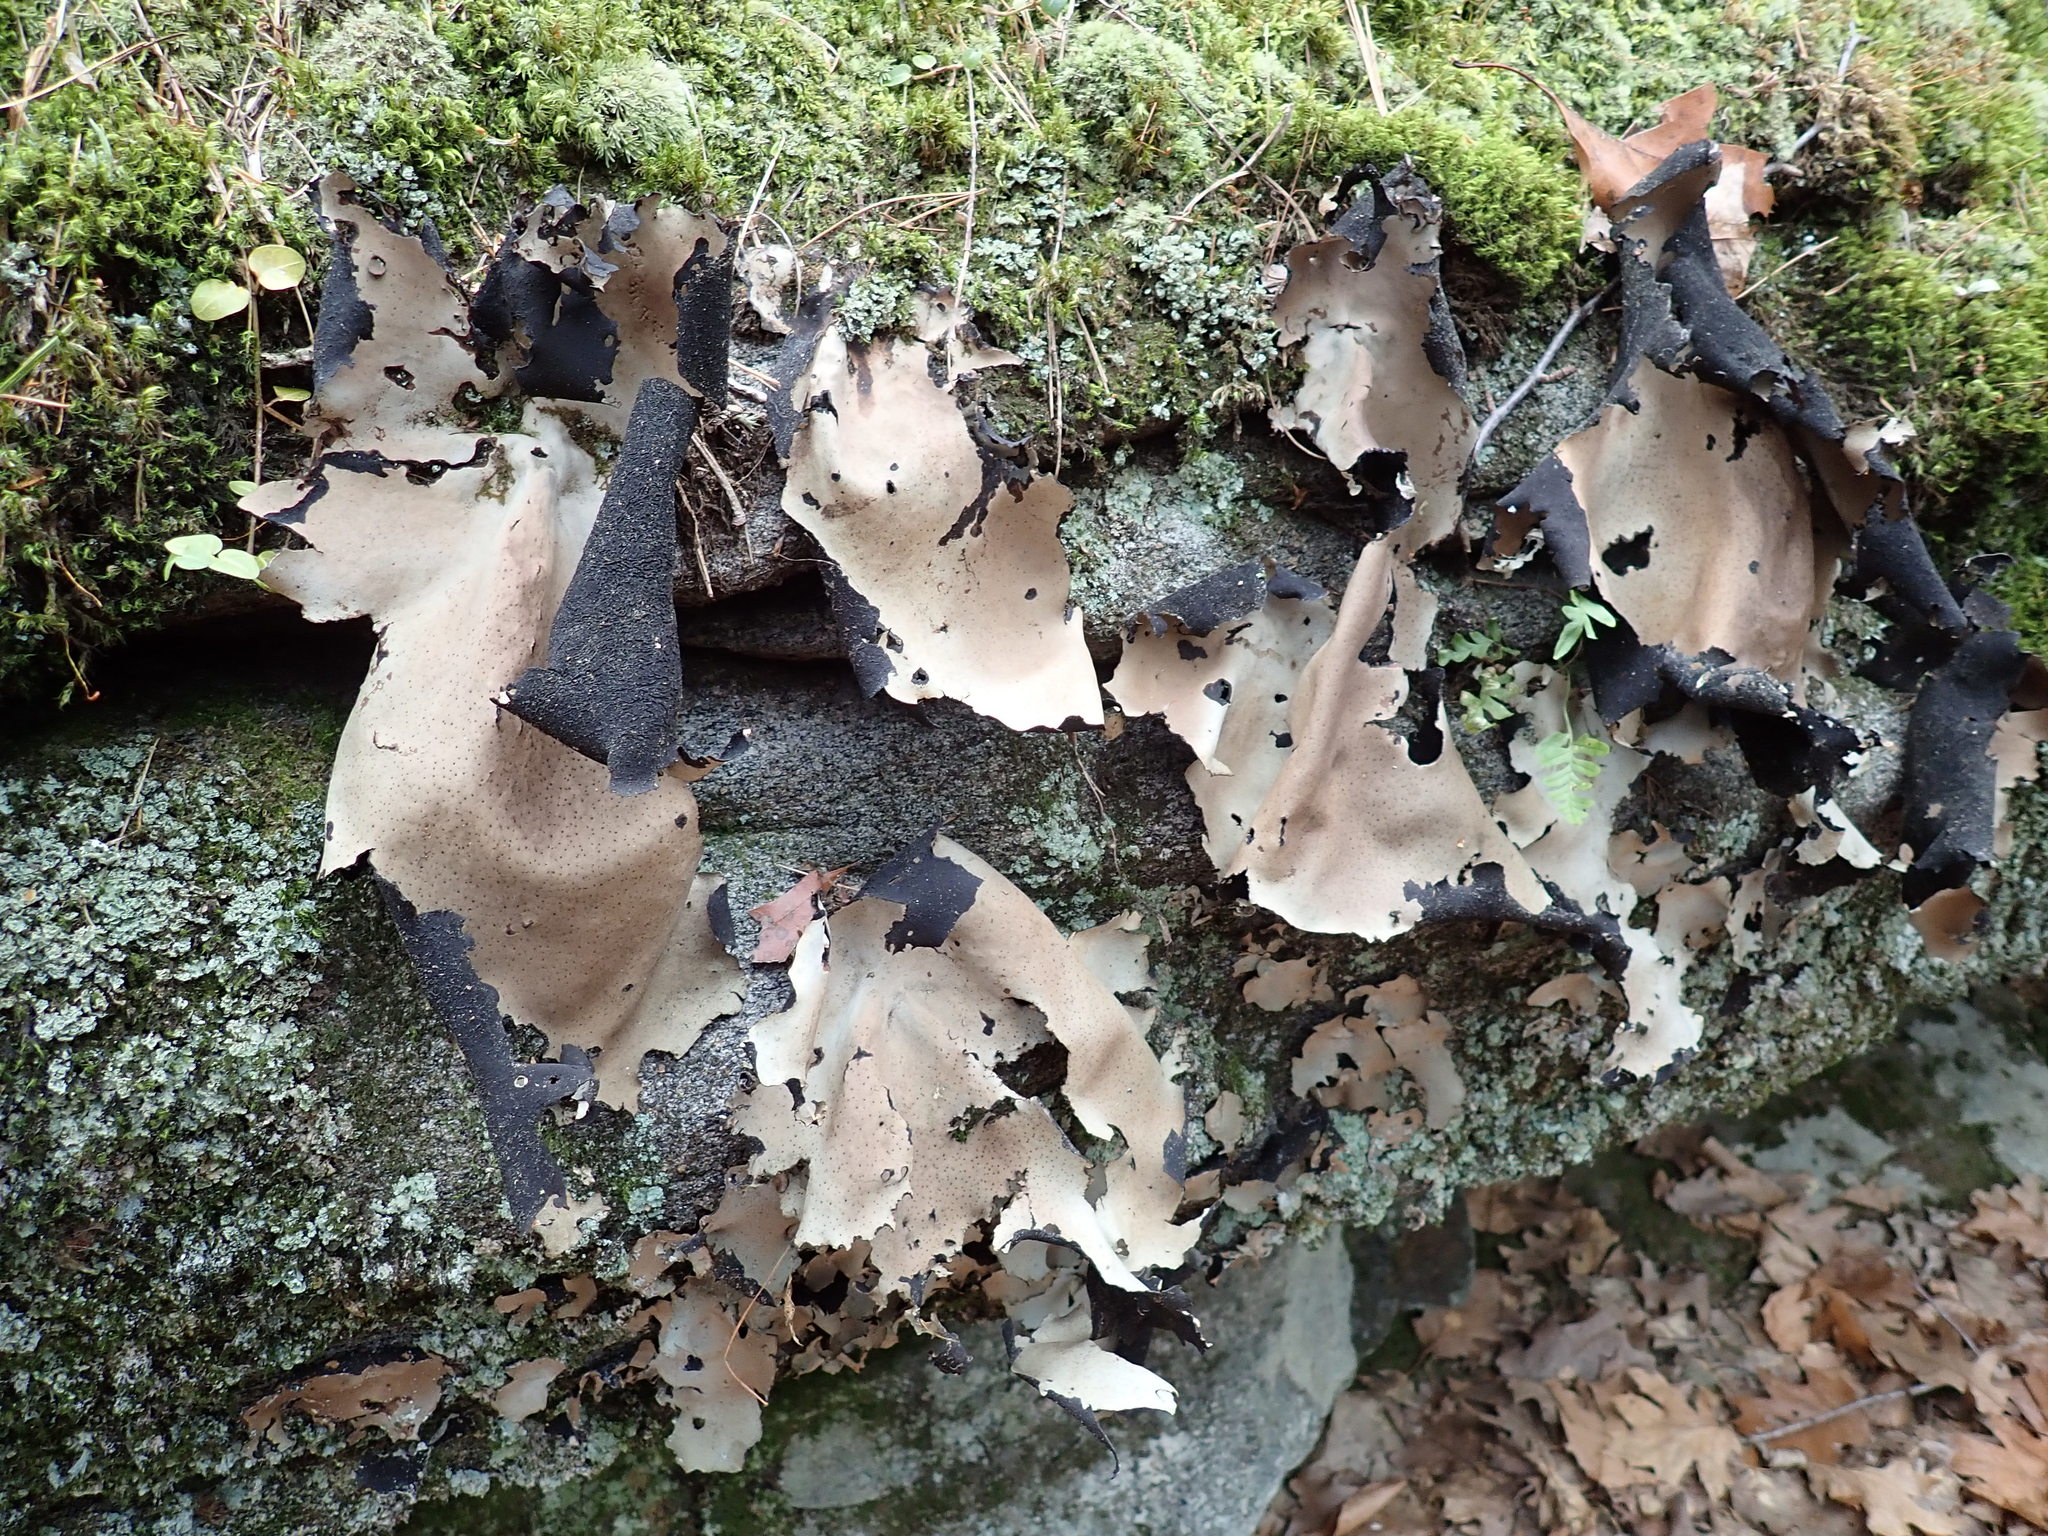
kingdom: Fungi
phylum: Ascomycota
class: Lecanoromycetes
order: Umbilicariales
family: Umbilicariaceae
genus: Umbilicaria
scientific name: Umbilicaria mammulata
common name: Smooth rock tripe
